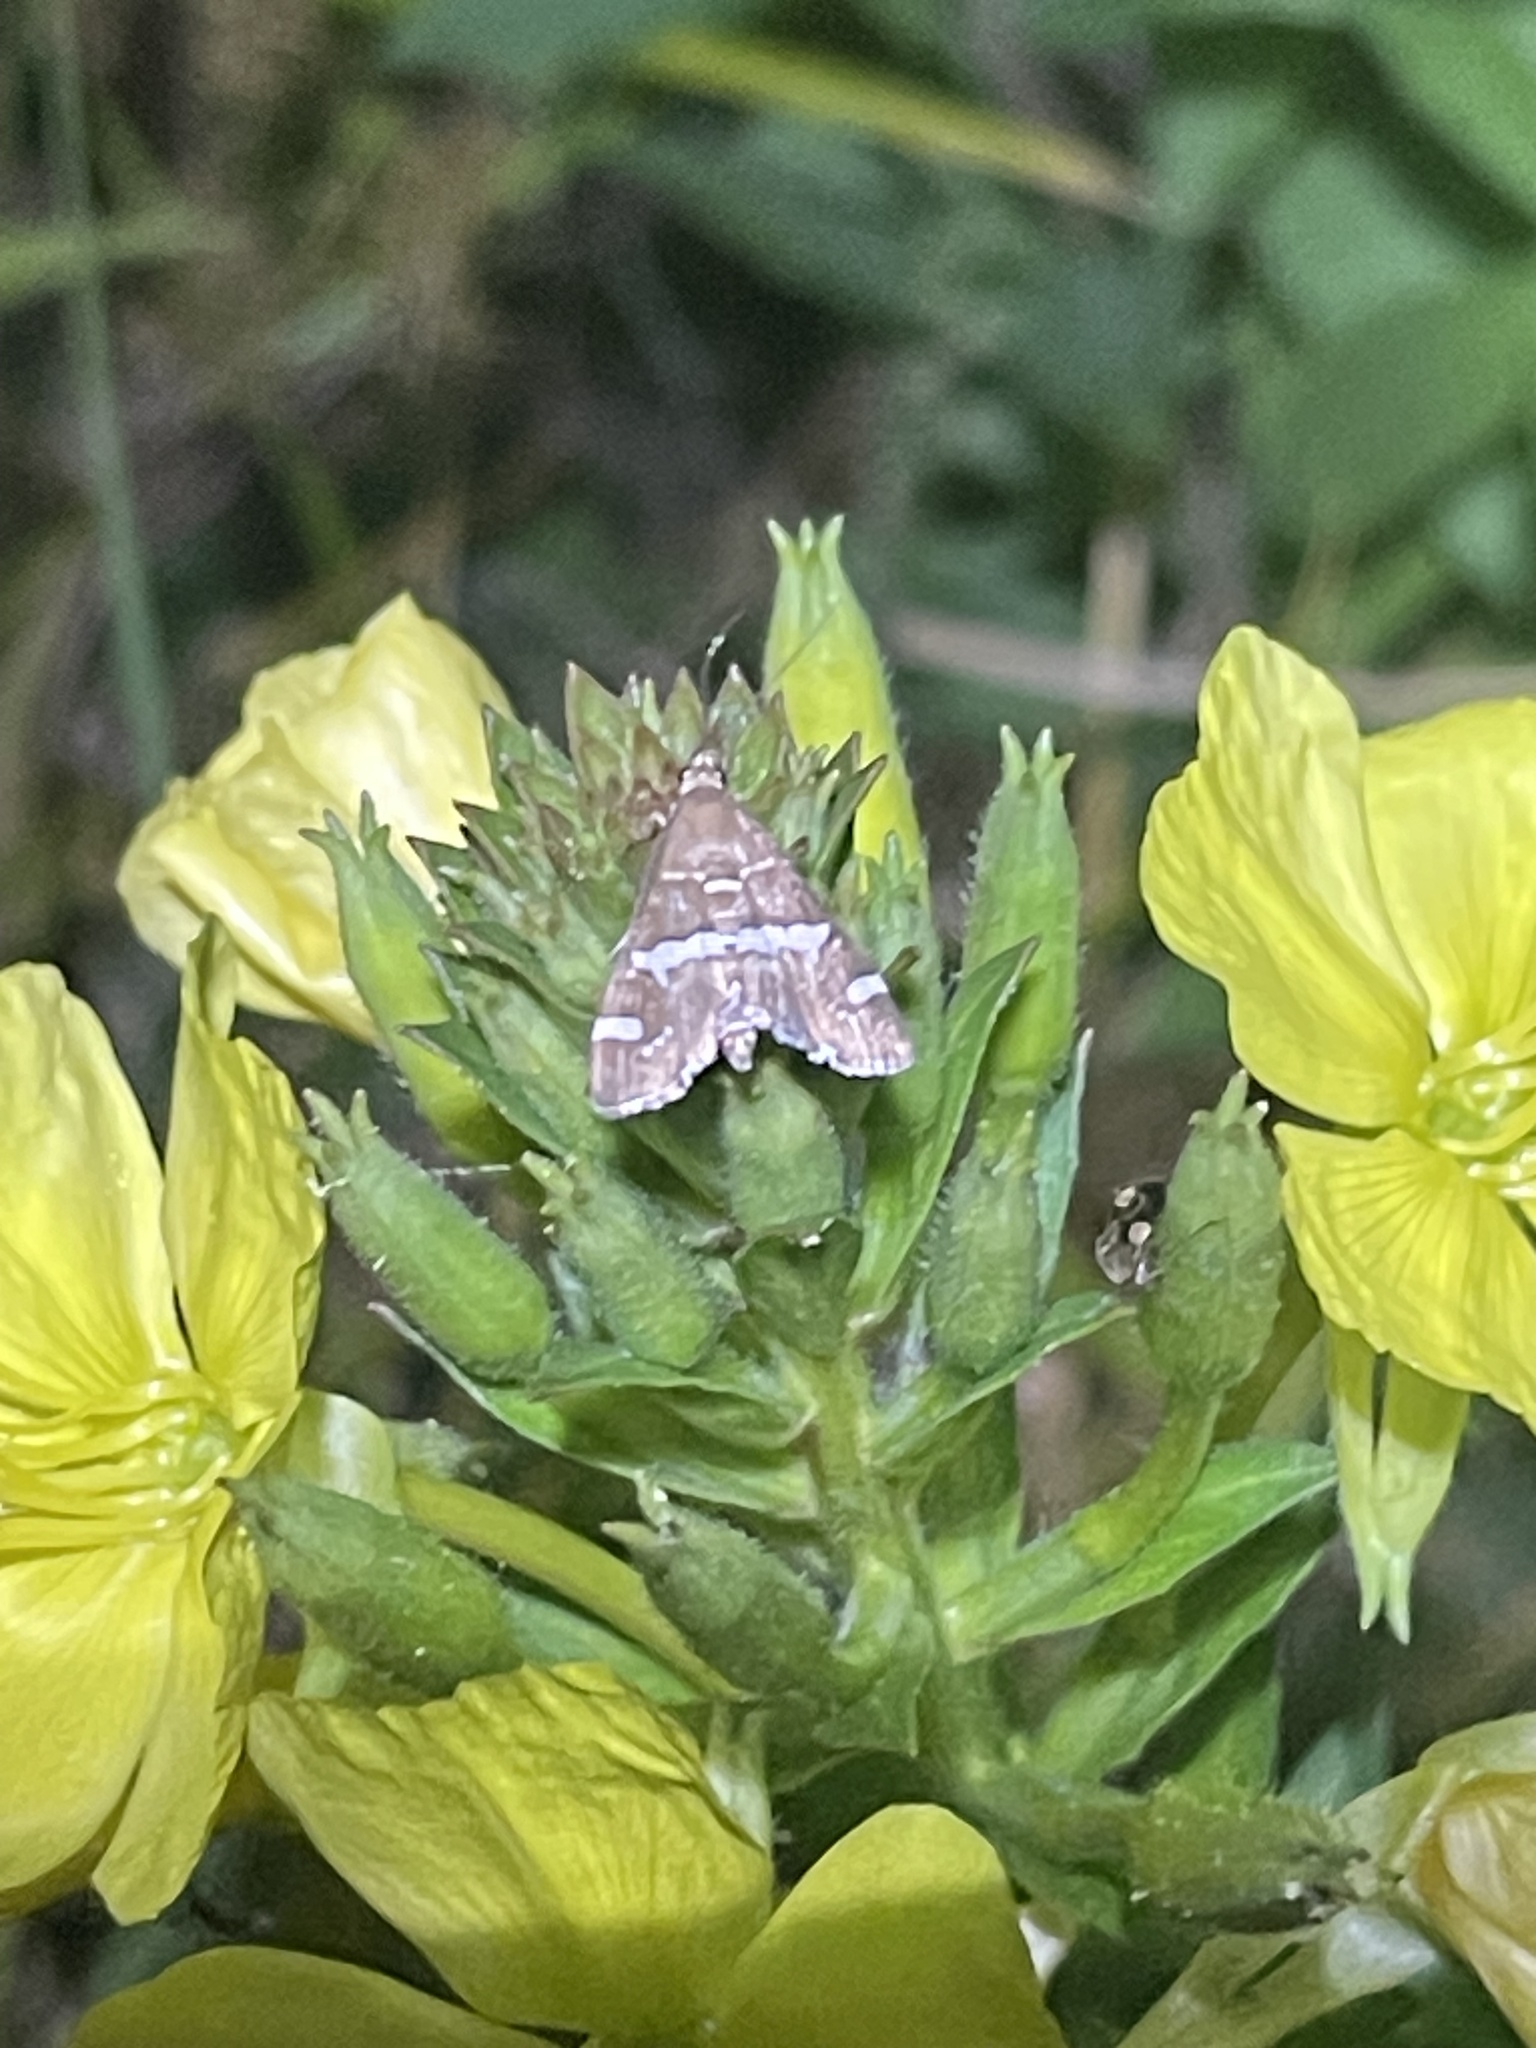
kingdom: Animalia
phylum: Arthropoda
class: Insecta
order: Lepidoptera
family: Crambidae
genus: Spoladea
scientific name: Spoladea recurvalis
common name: Beet webworm moth
